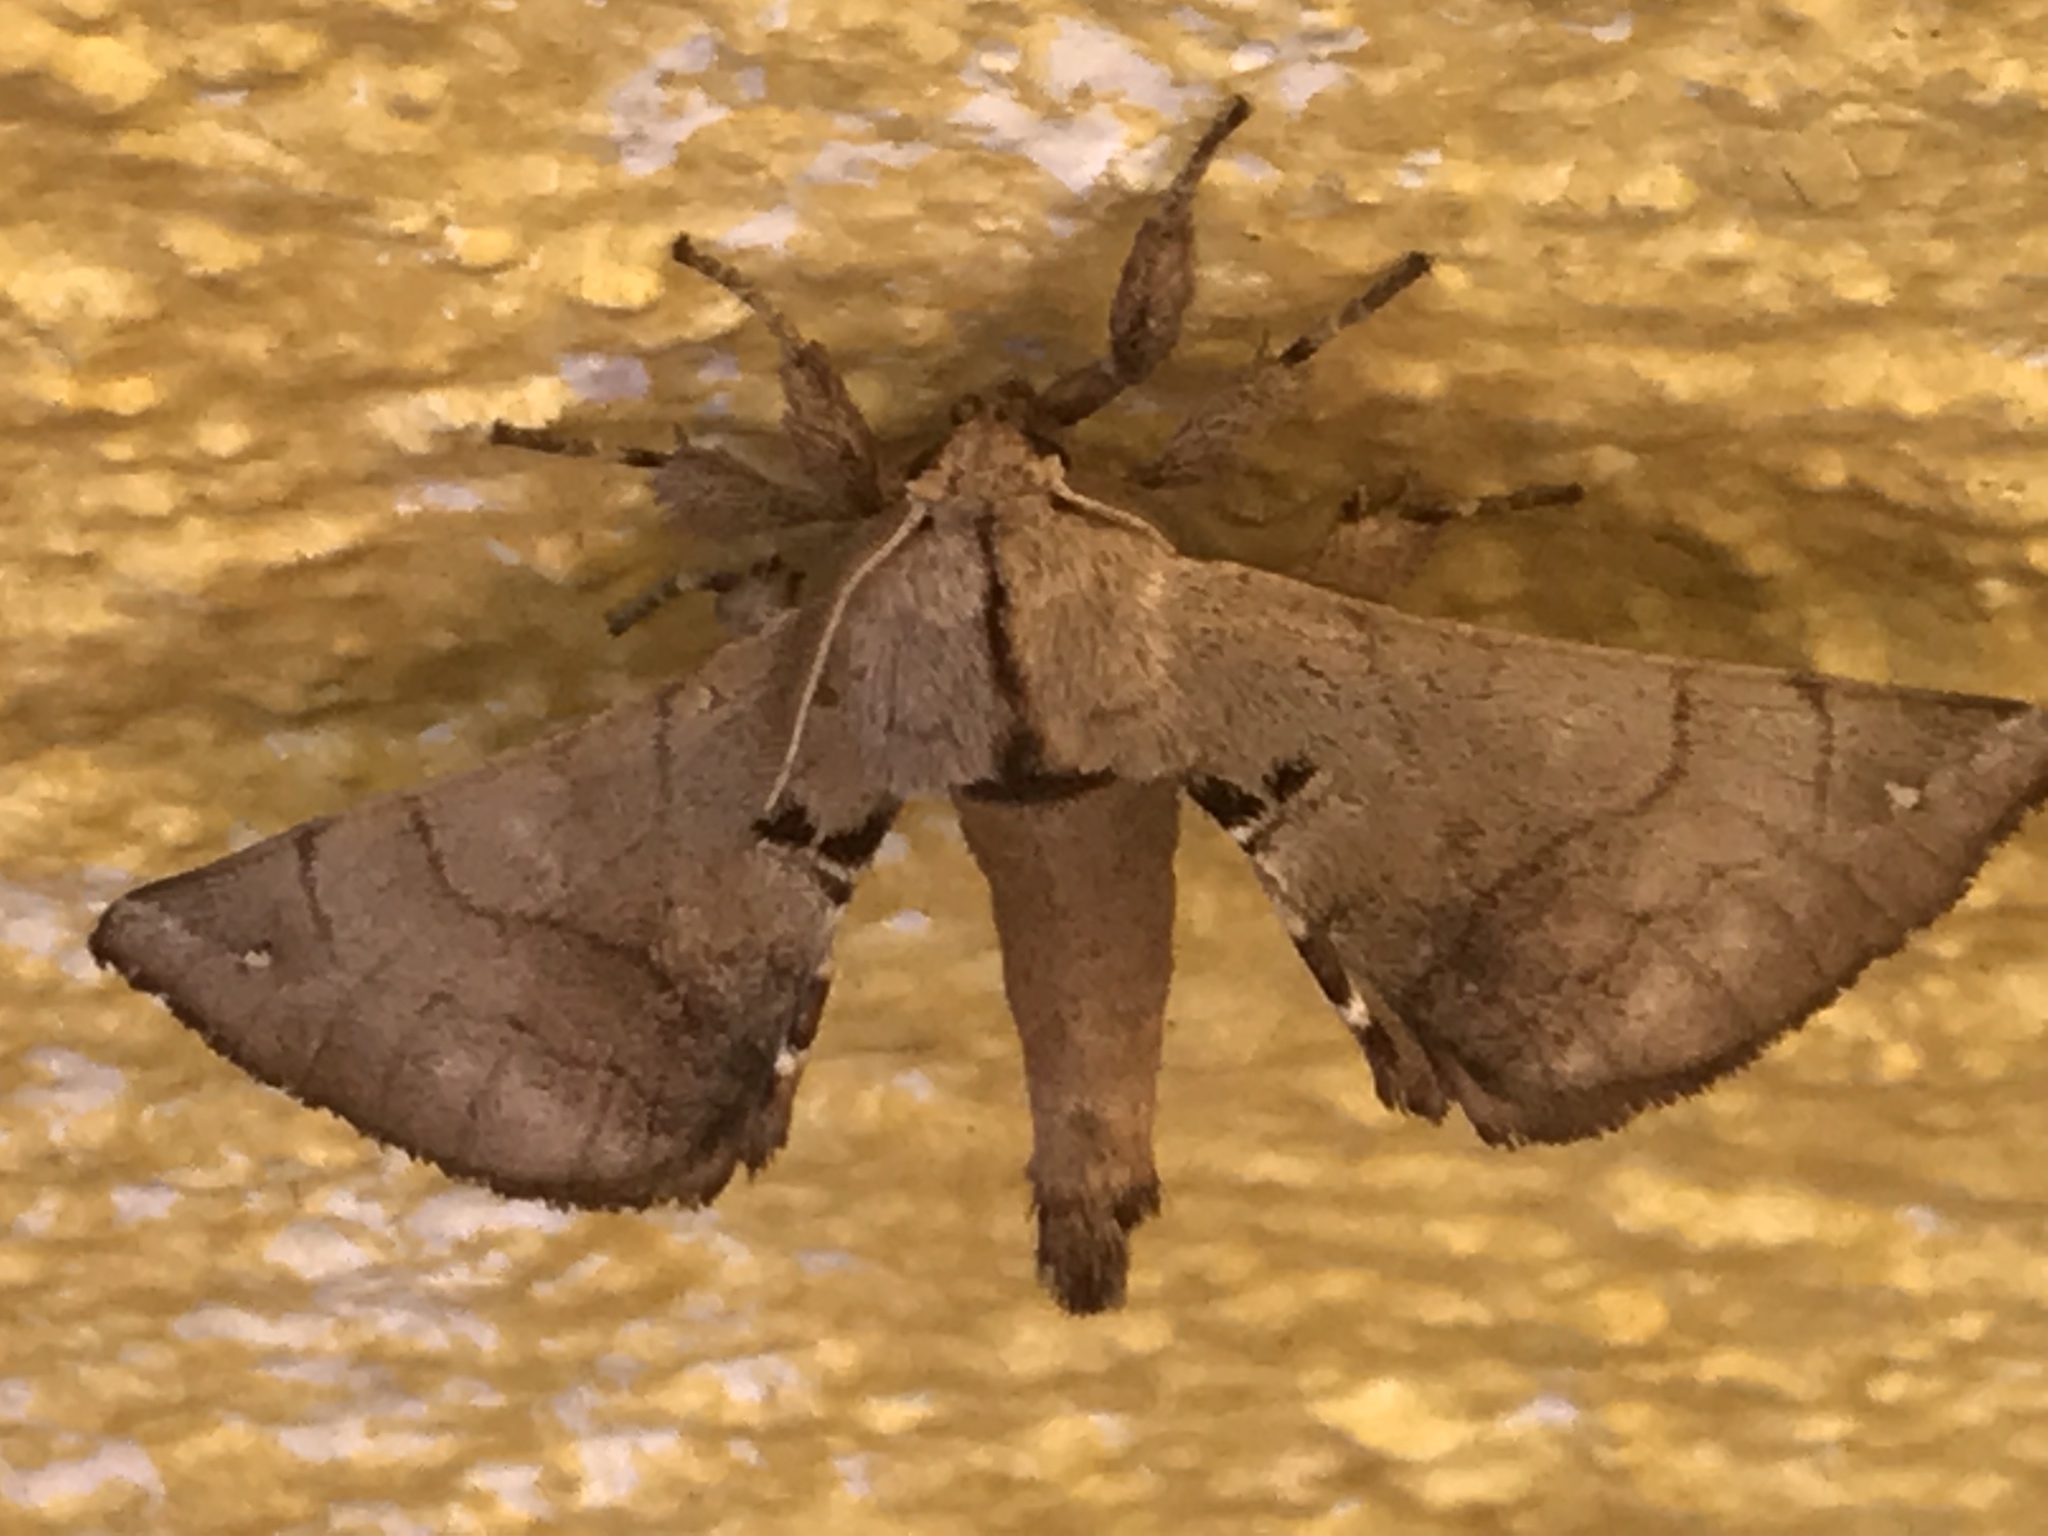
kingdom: Animalia
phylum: Arthropoda
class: Insecta
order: Lepidoptera
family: Apatelodidae
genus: Hygrochroa
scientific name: Hygrochroa
